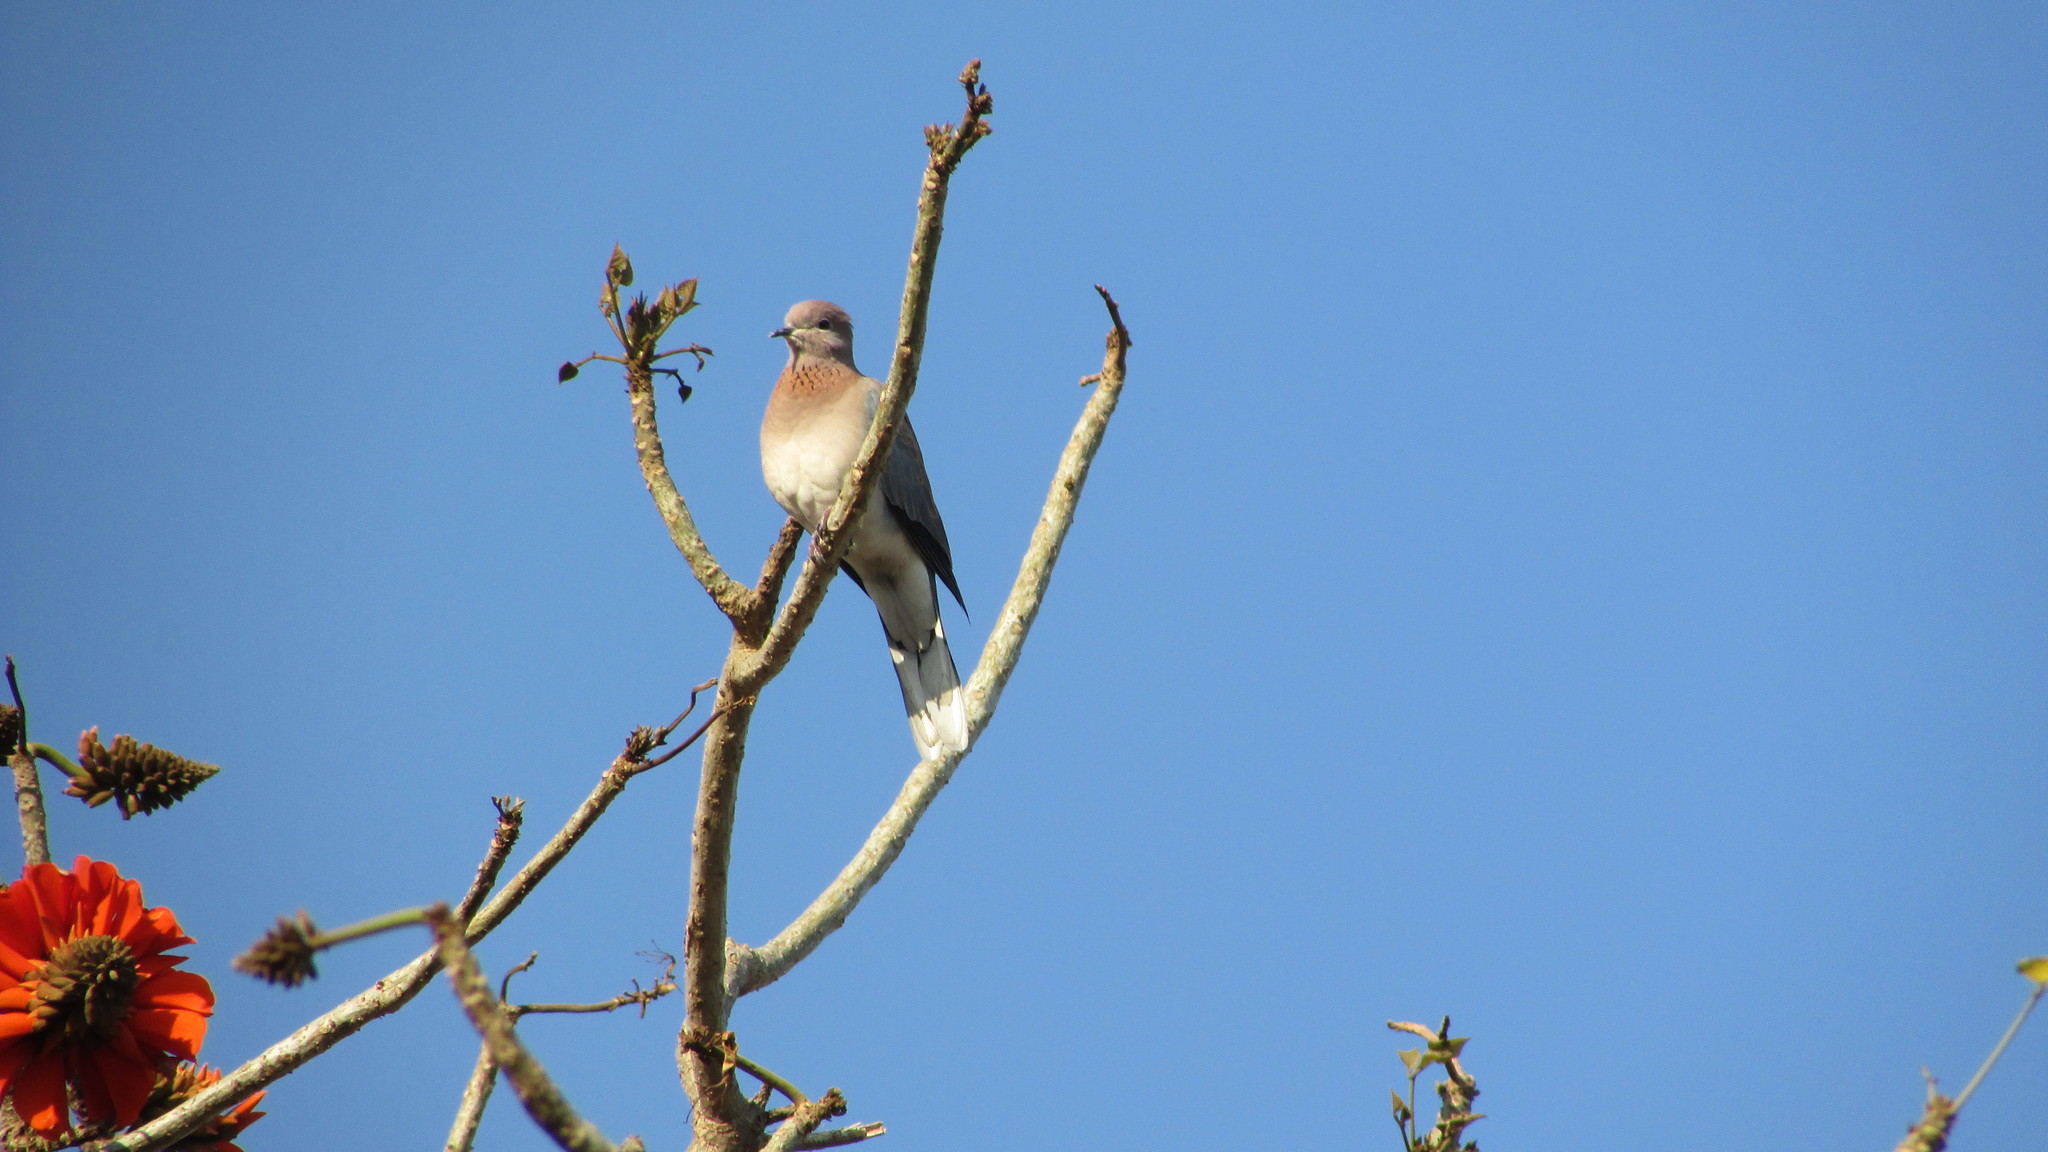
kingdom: Animalia
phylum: Chordata
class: Aves
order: Columbiformes
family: Columbidae
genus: Spilopelia
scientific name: Spilopelia senegalensis
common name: Laughing dove
